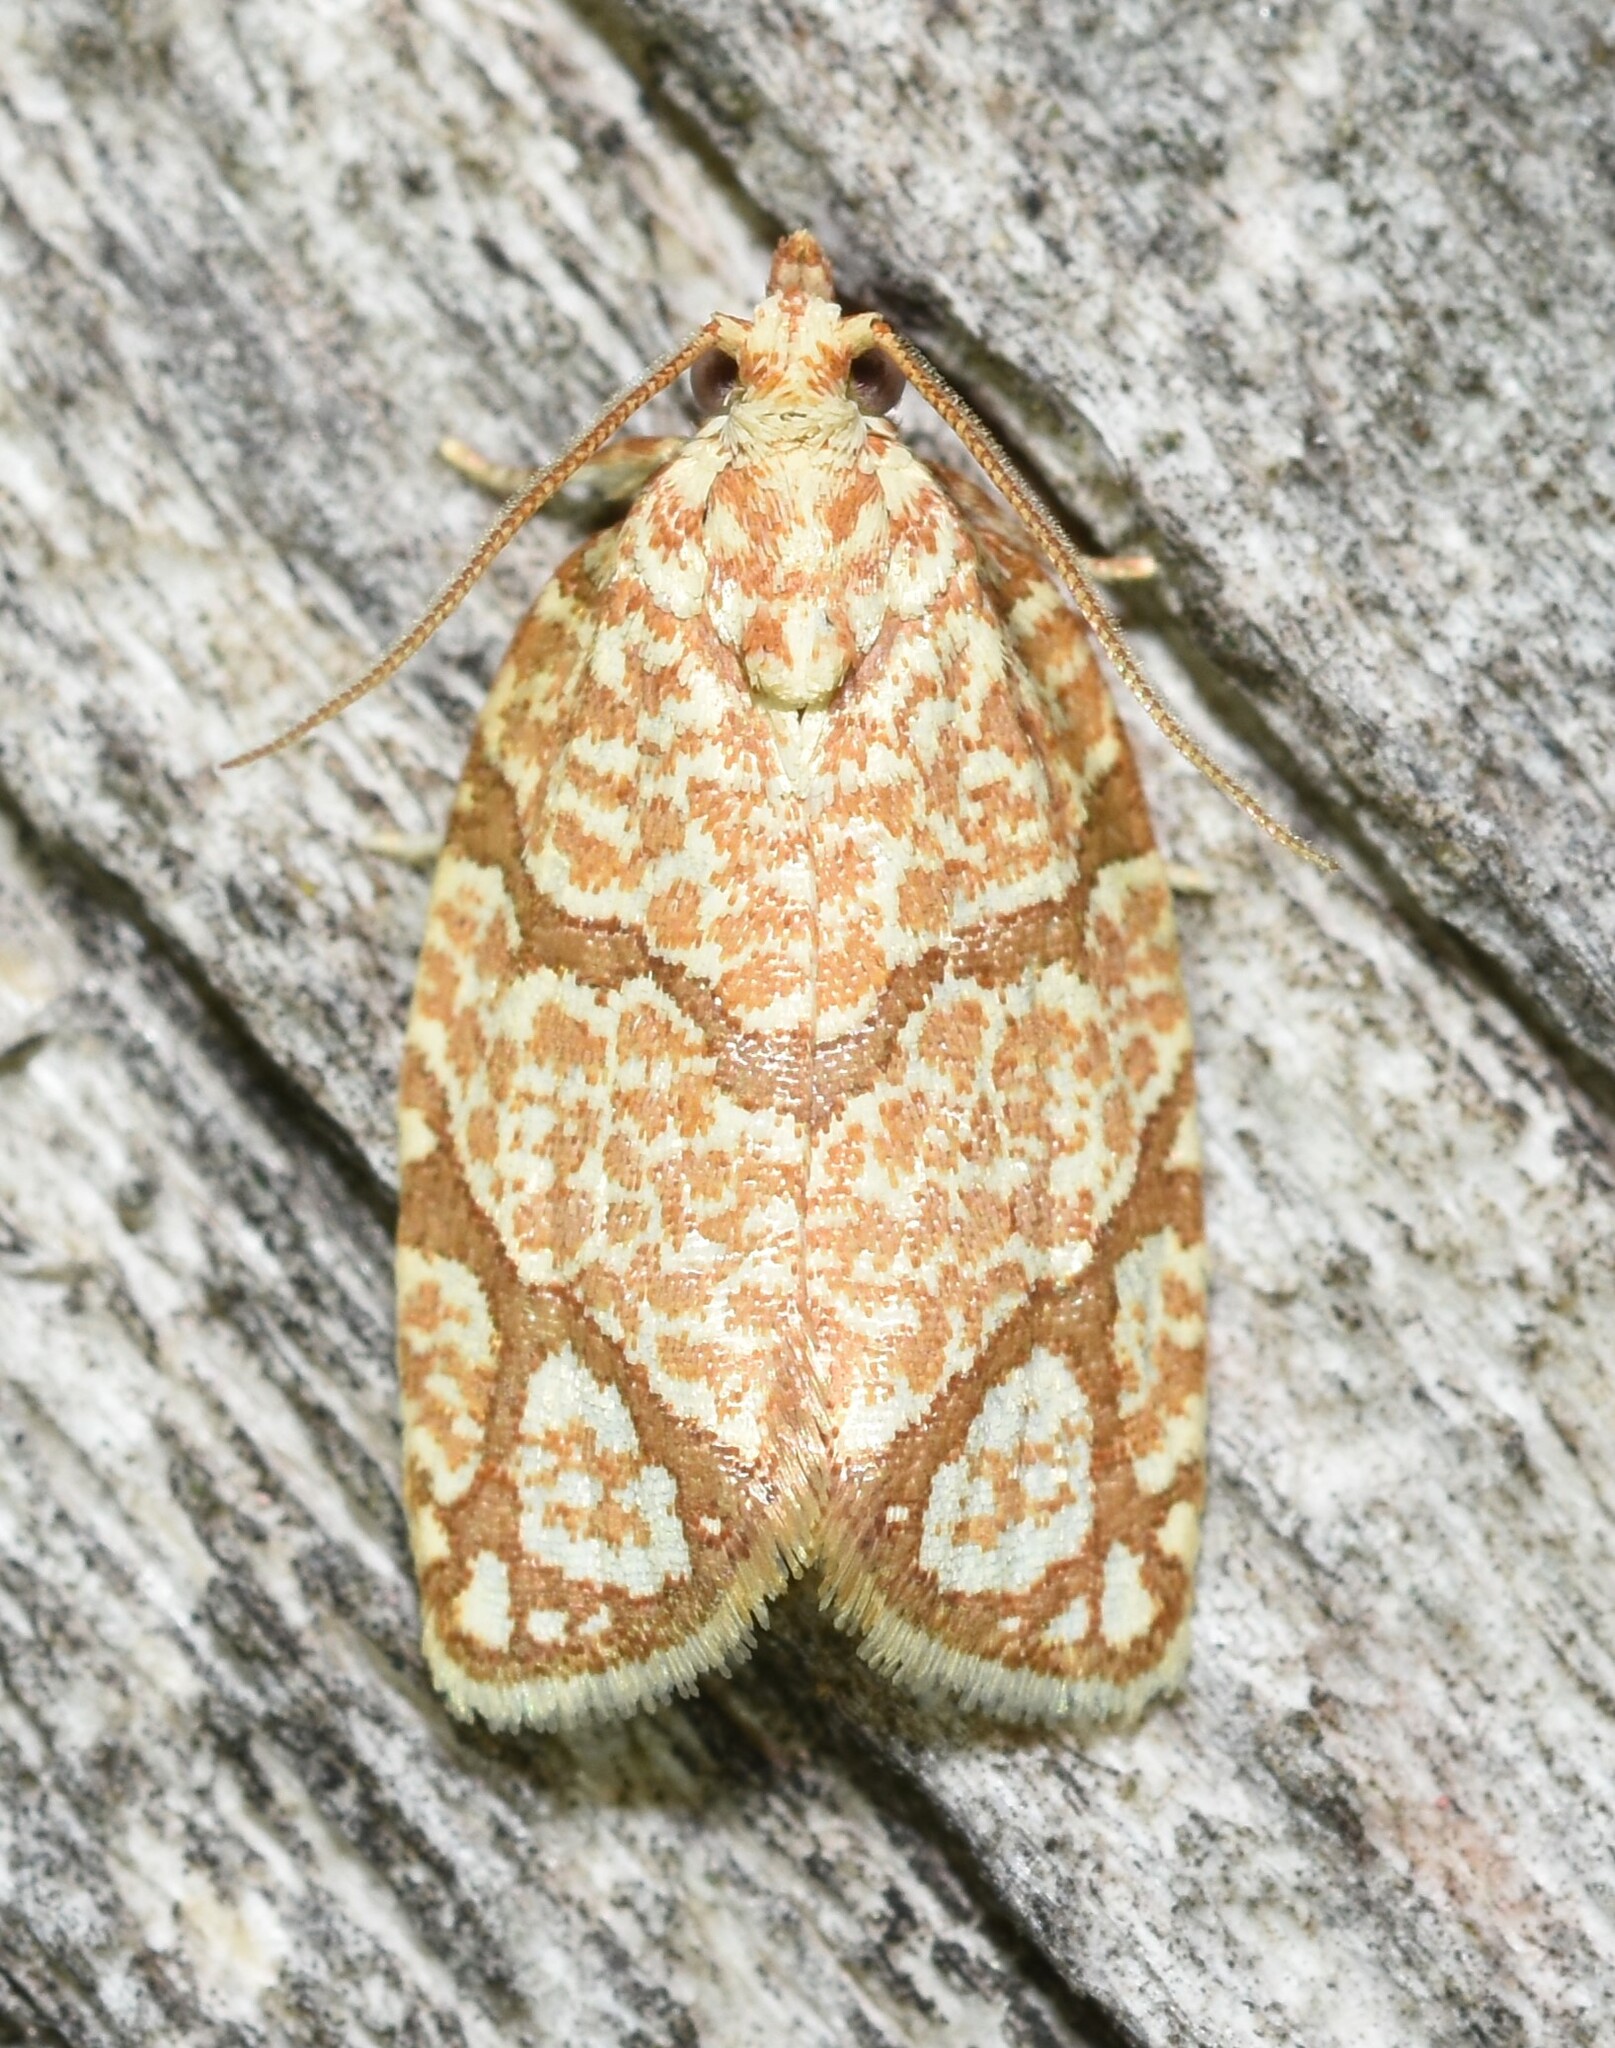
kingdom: Animalia
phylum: Arthropoda
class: Insecta
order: Lepidoptera
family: Tortricidae
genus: Argyrotaenia
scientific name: Argyrotaenia quercifoliana
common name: Yellow-winged oak leafroller moth
